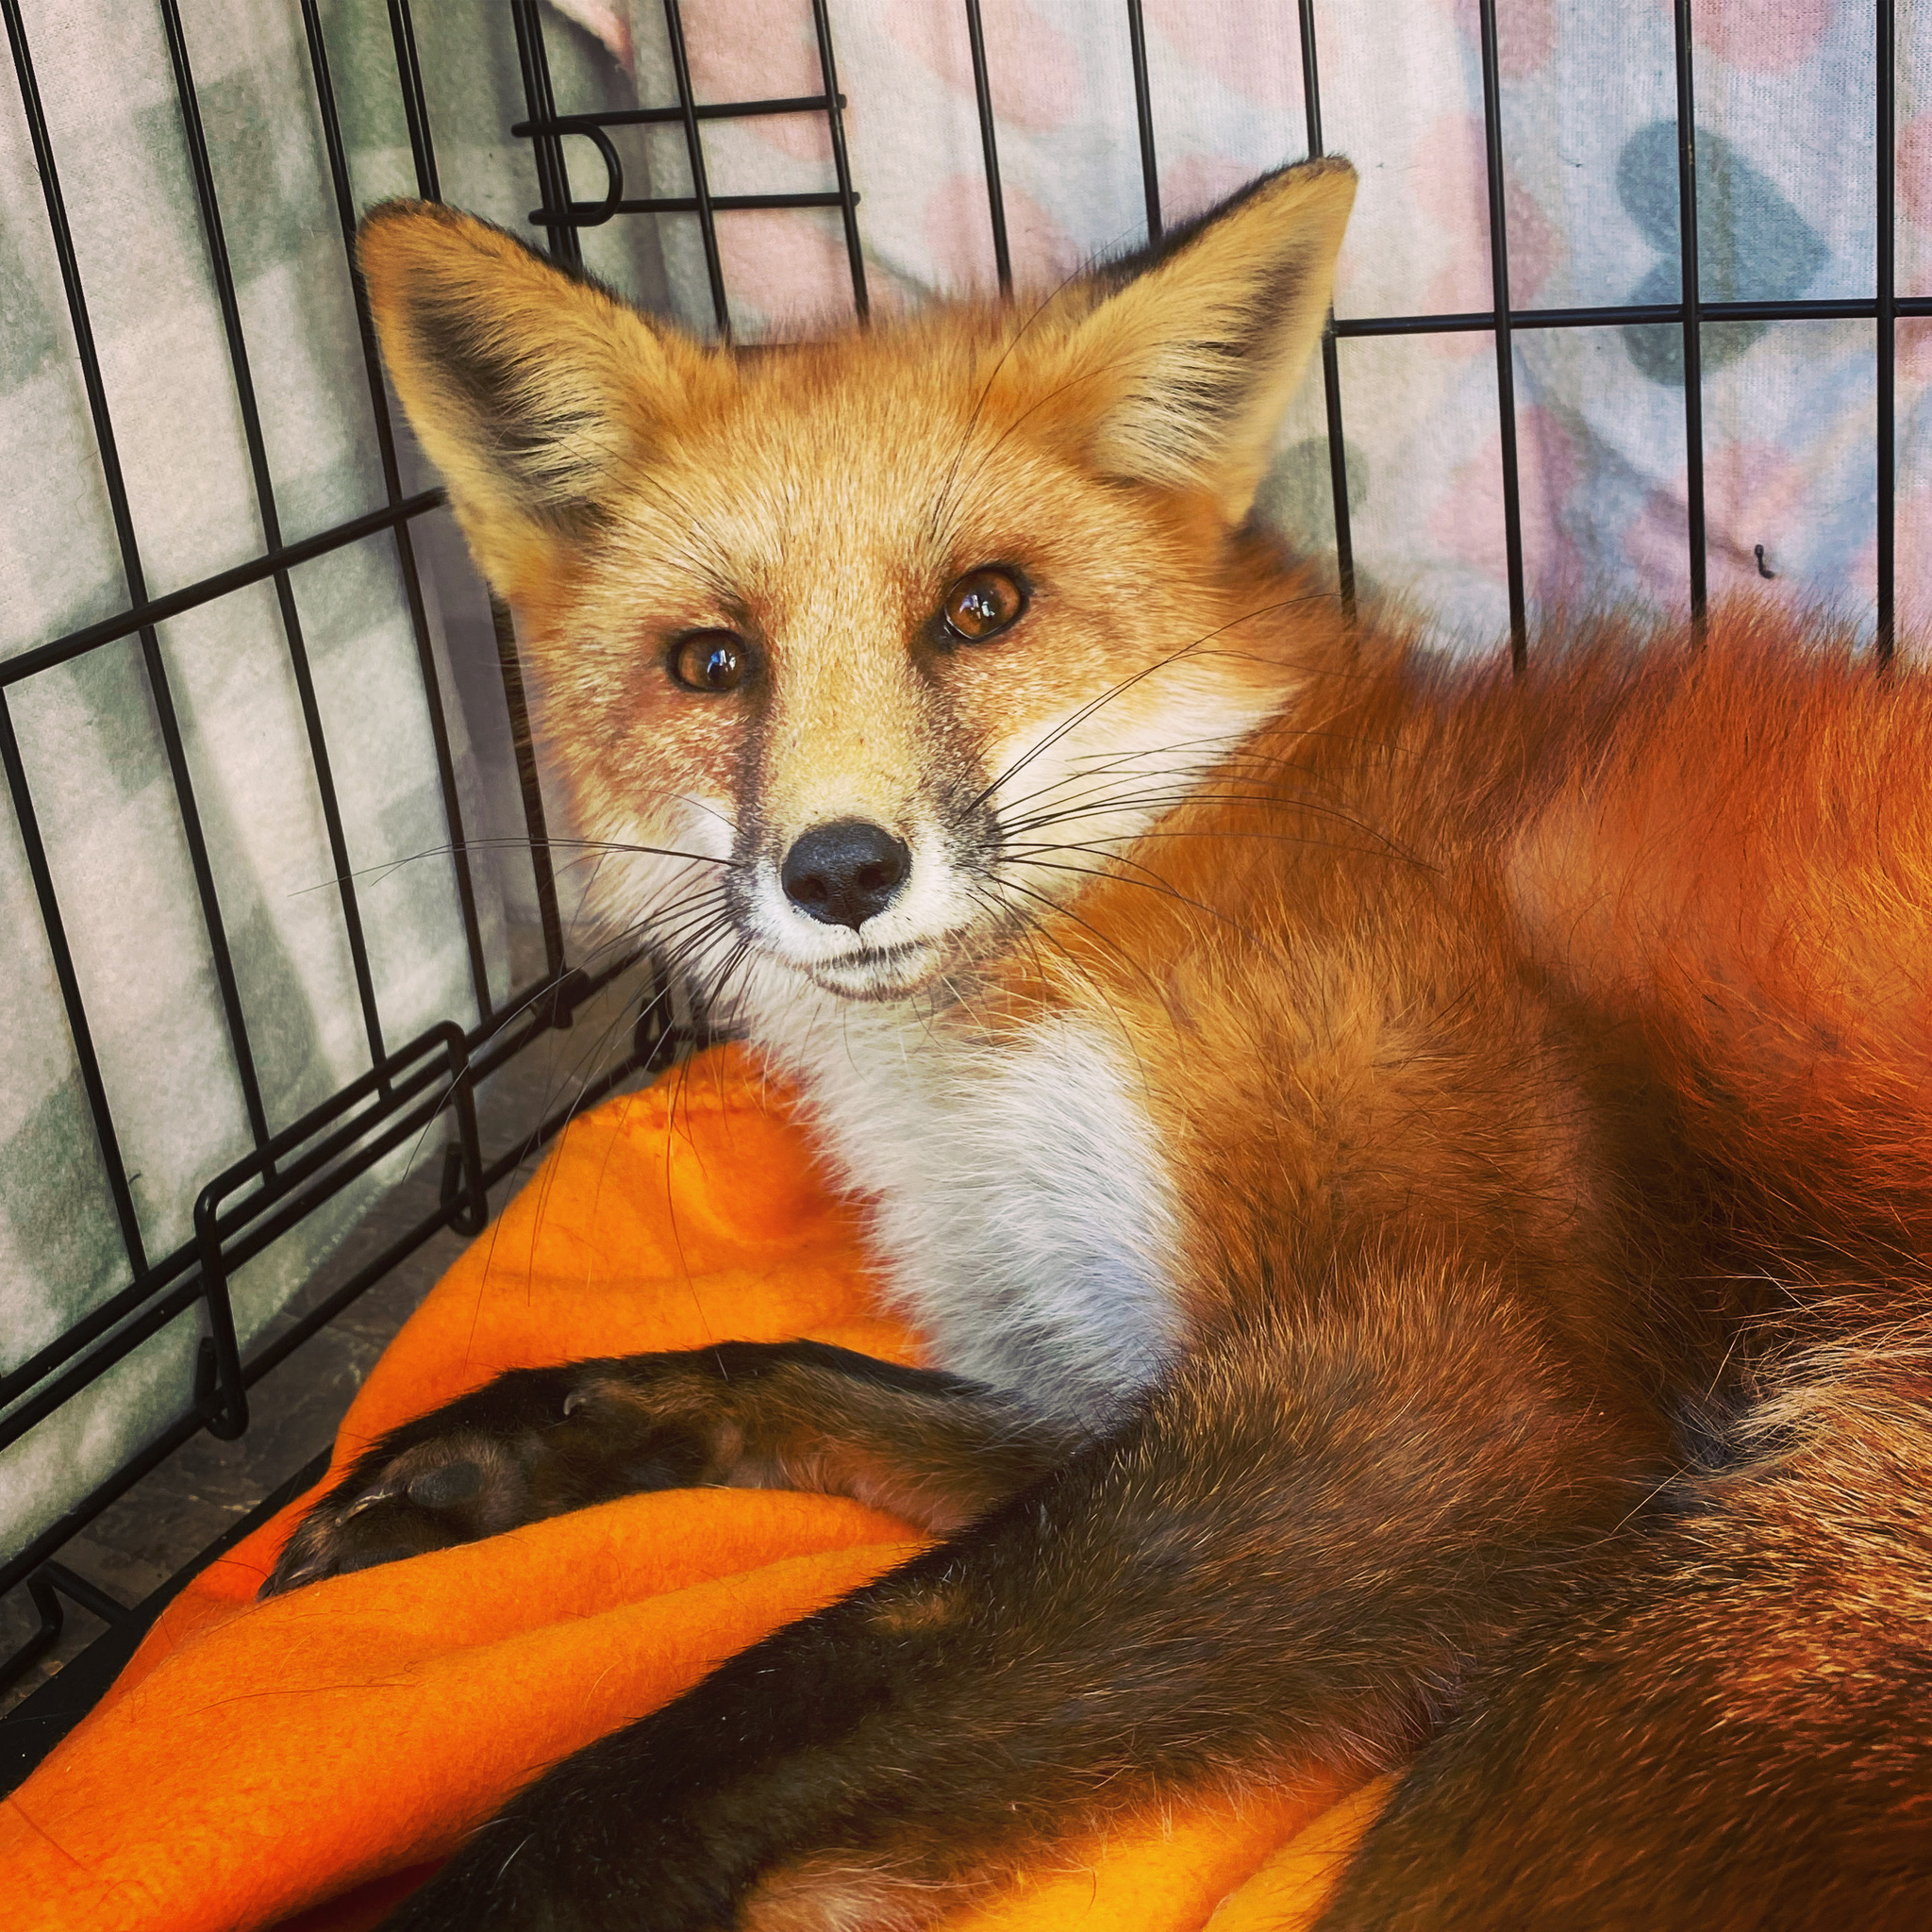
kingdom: Animalia
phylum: Chordata
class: Mammalia
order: Carnivora
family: Canidae
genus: Vulpes
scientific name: Vulpes vulpes
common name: Red fox
